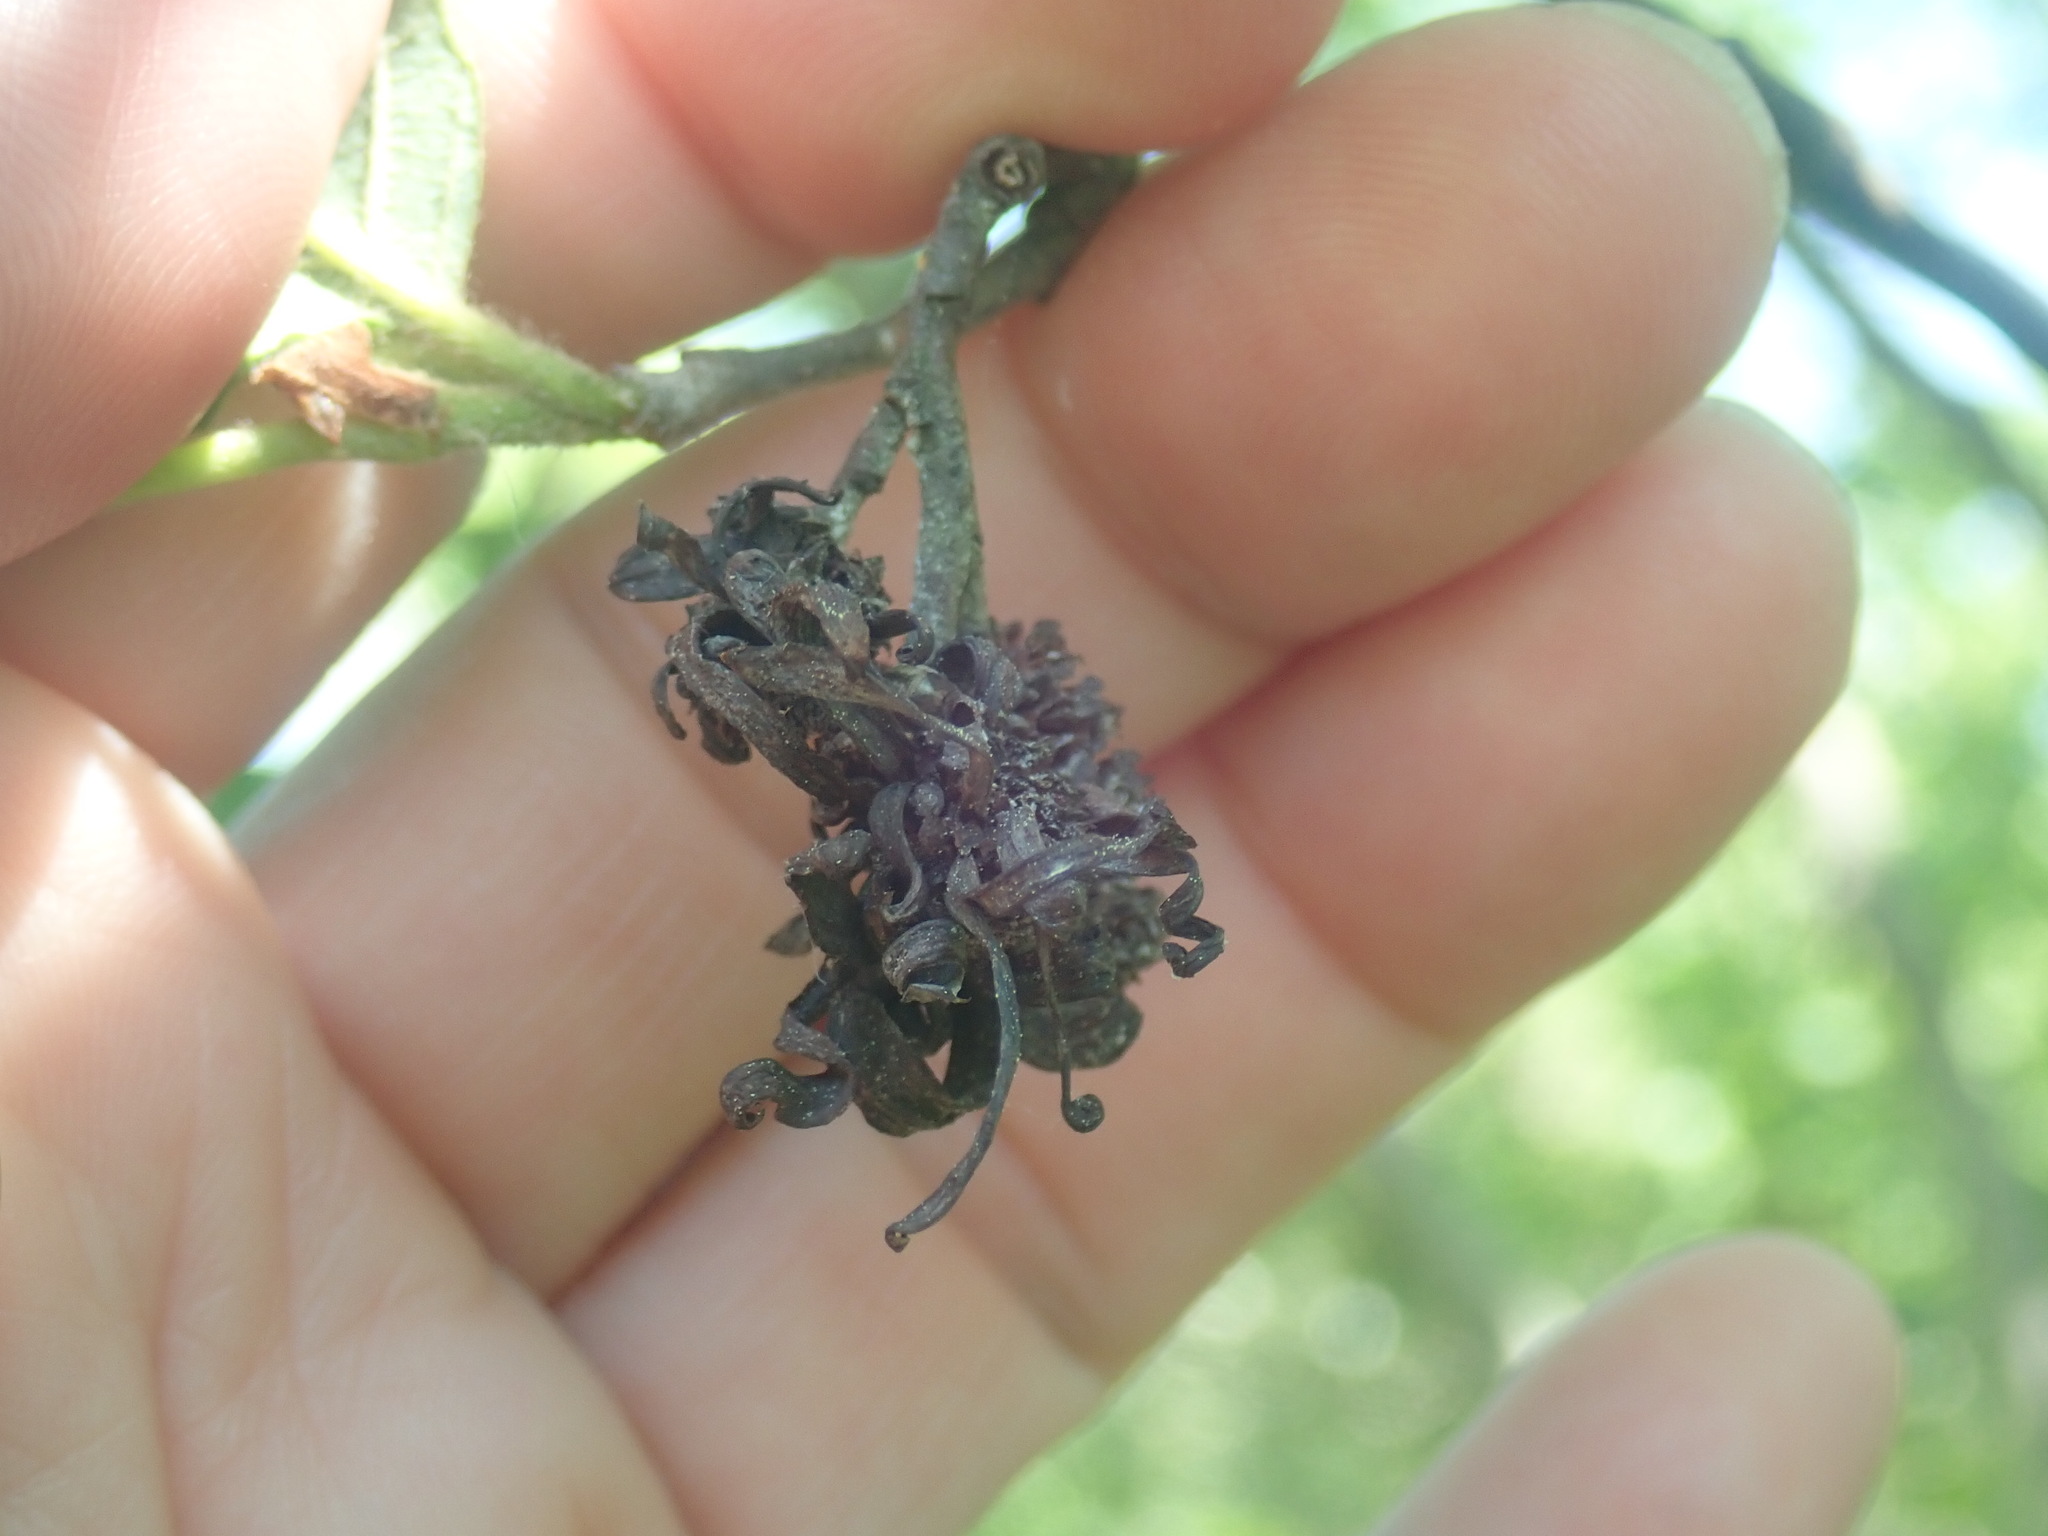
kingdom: Fungi
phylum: Ascomycota
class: Taphrinomycetes
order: Taphrinales
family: Taphrinaceae
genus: Taphrina
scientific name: Taphrina robinsoniana
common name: Eastern american alder tongue gall fungus
